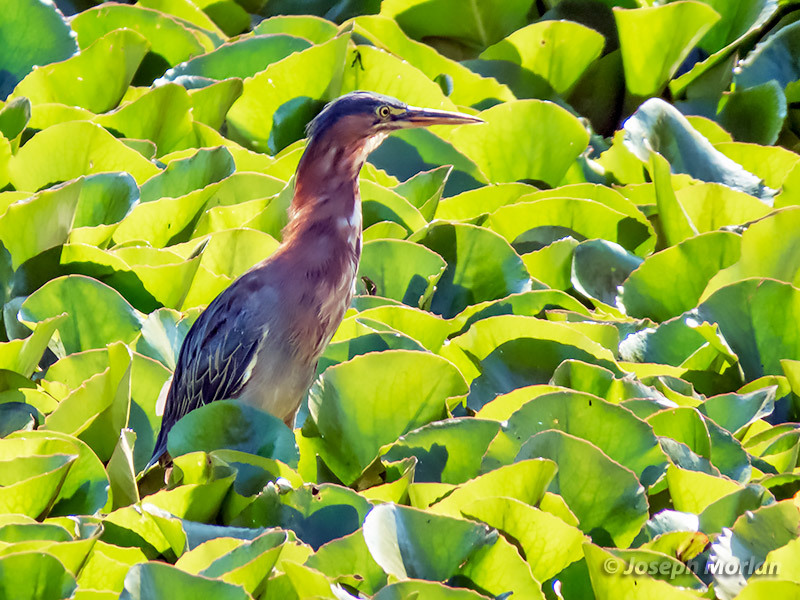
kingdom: Animalia
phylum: Chordata
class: Aves
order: Pelecaniformes
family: Ardeidae
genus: Butorides
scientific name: Butorides virescens
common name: Green heron
